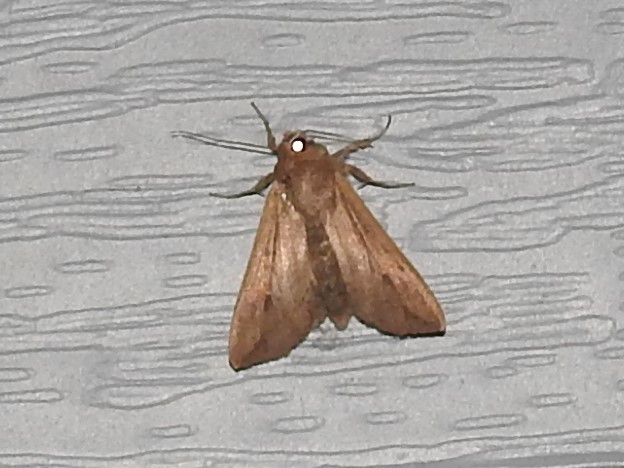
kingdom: Animalia
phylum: Arthropoda
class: Insecta
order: Lepidoptera
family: Noctuidae
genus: Mythimna
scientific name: Mythimna unipuncta
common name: White-speck
